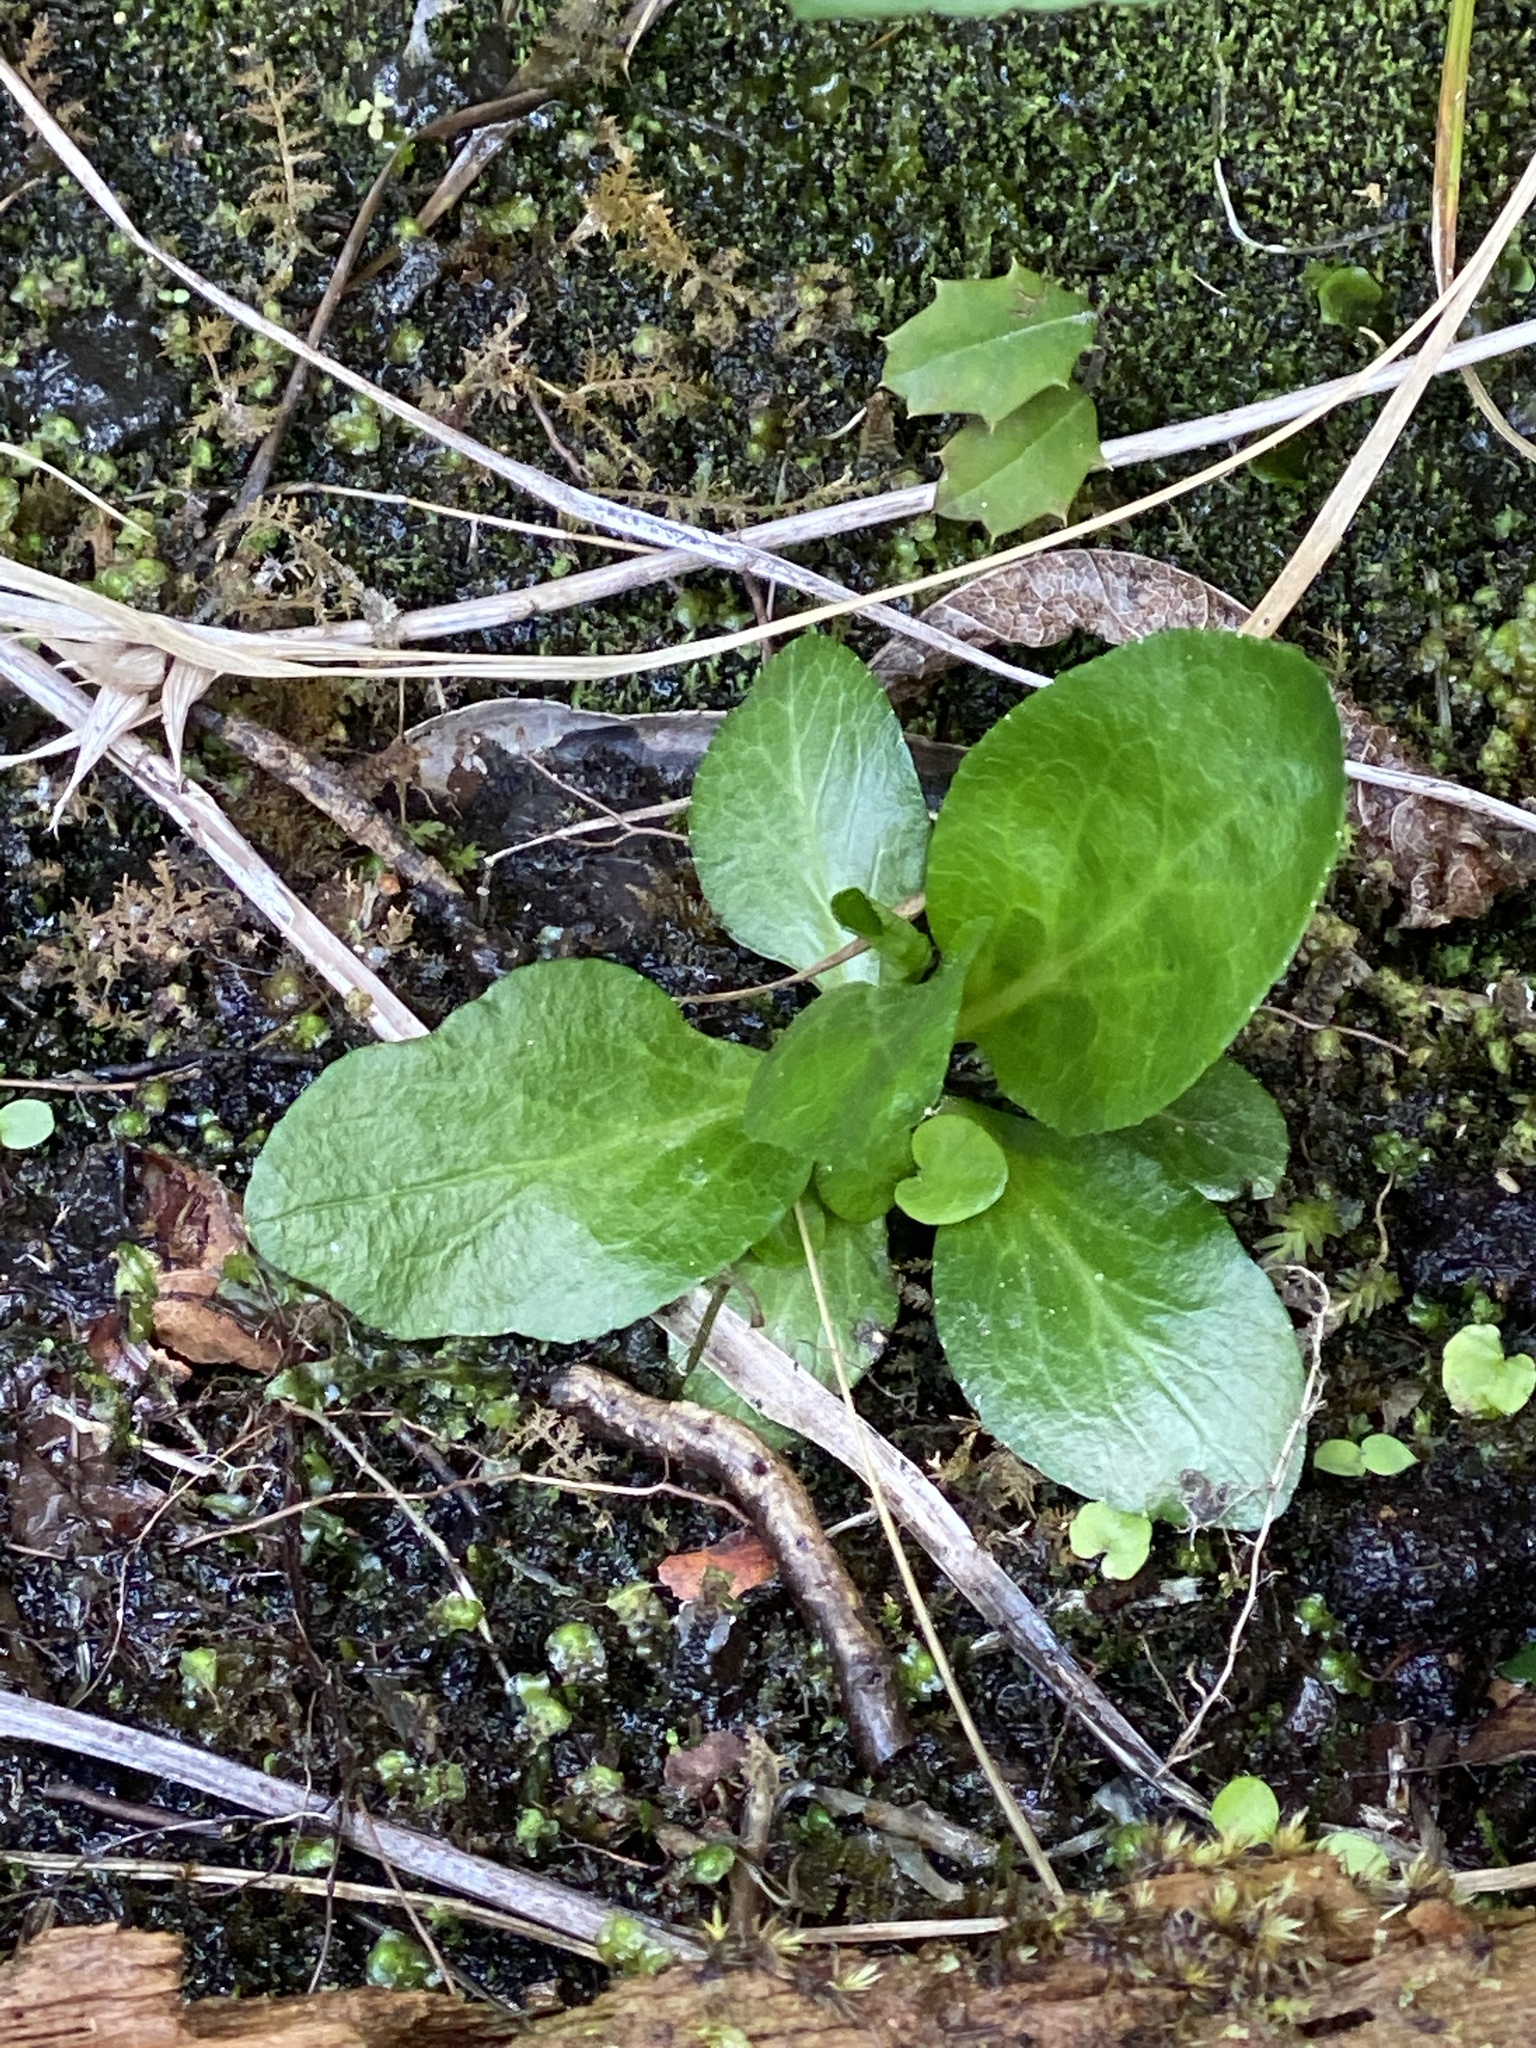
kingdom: Plantae
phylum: Tracheophyta
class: Magnoliopsida
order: Asterales
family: Campanulaceae
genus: Lobelia
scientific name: Lobelia cardinalis
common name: Cardinal flower
